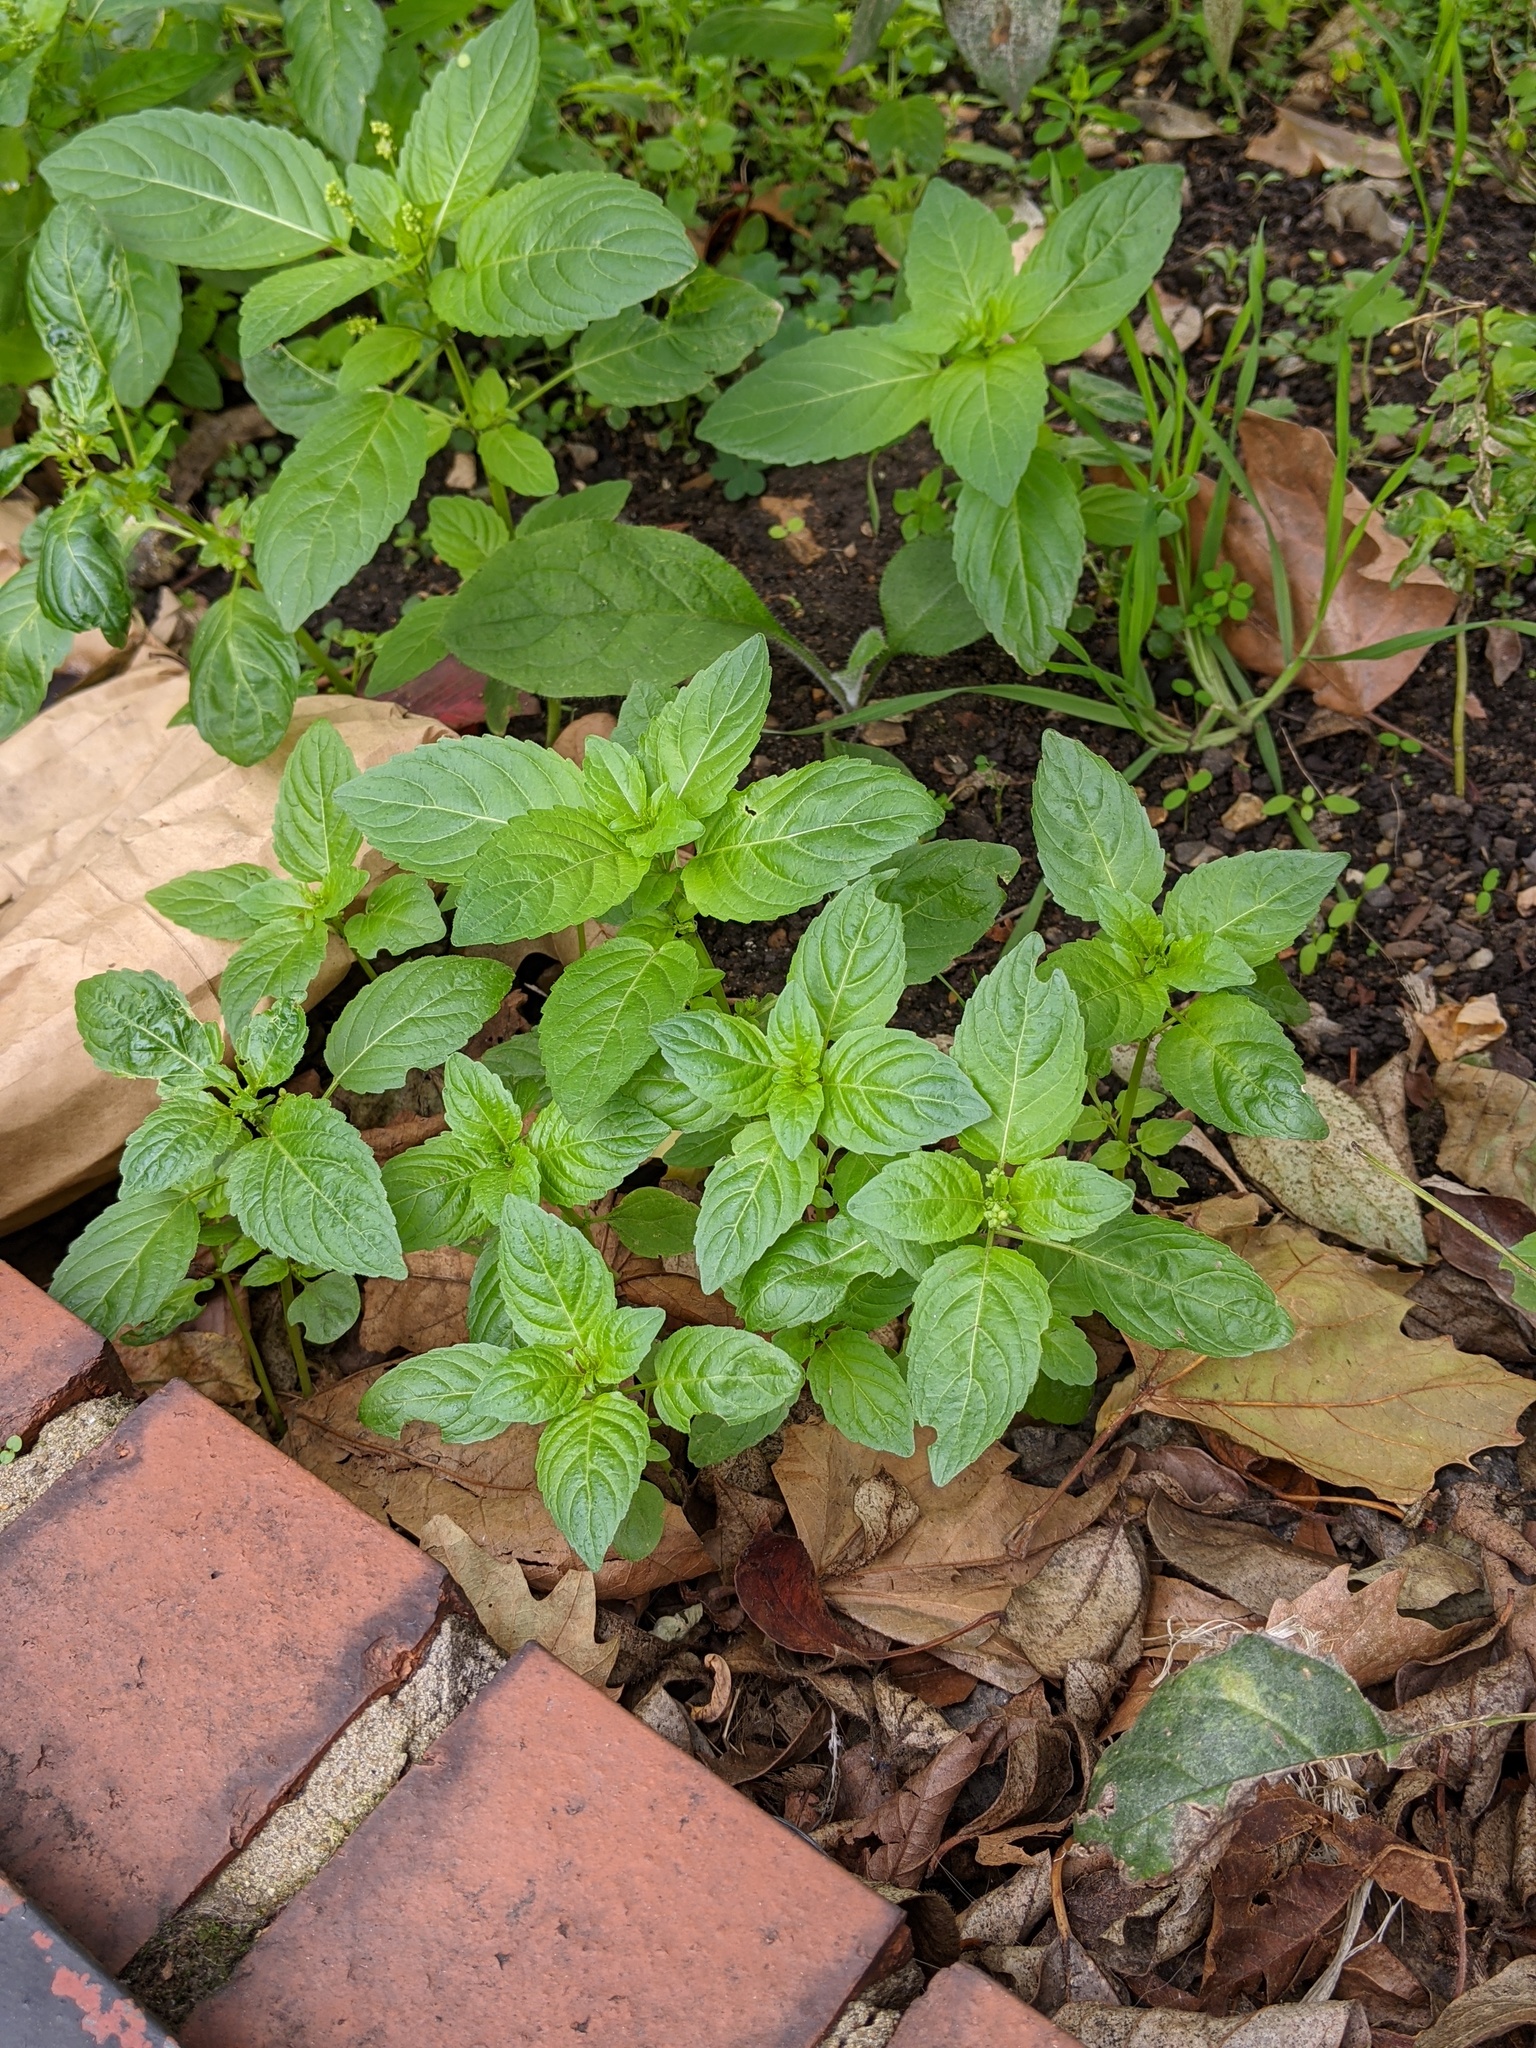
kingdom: Plantae
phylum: Tracheophyta
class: Magnoliopsida
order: Malpighiales
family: Euphorbiaceae
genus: Mercurialis
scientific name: Mercurialis annua
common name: Annual mercury
